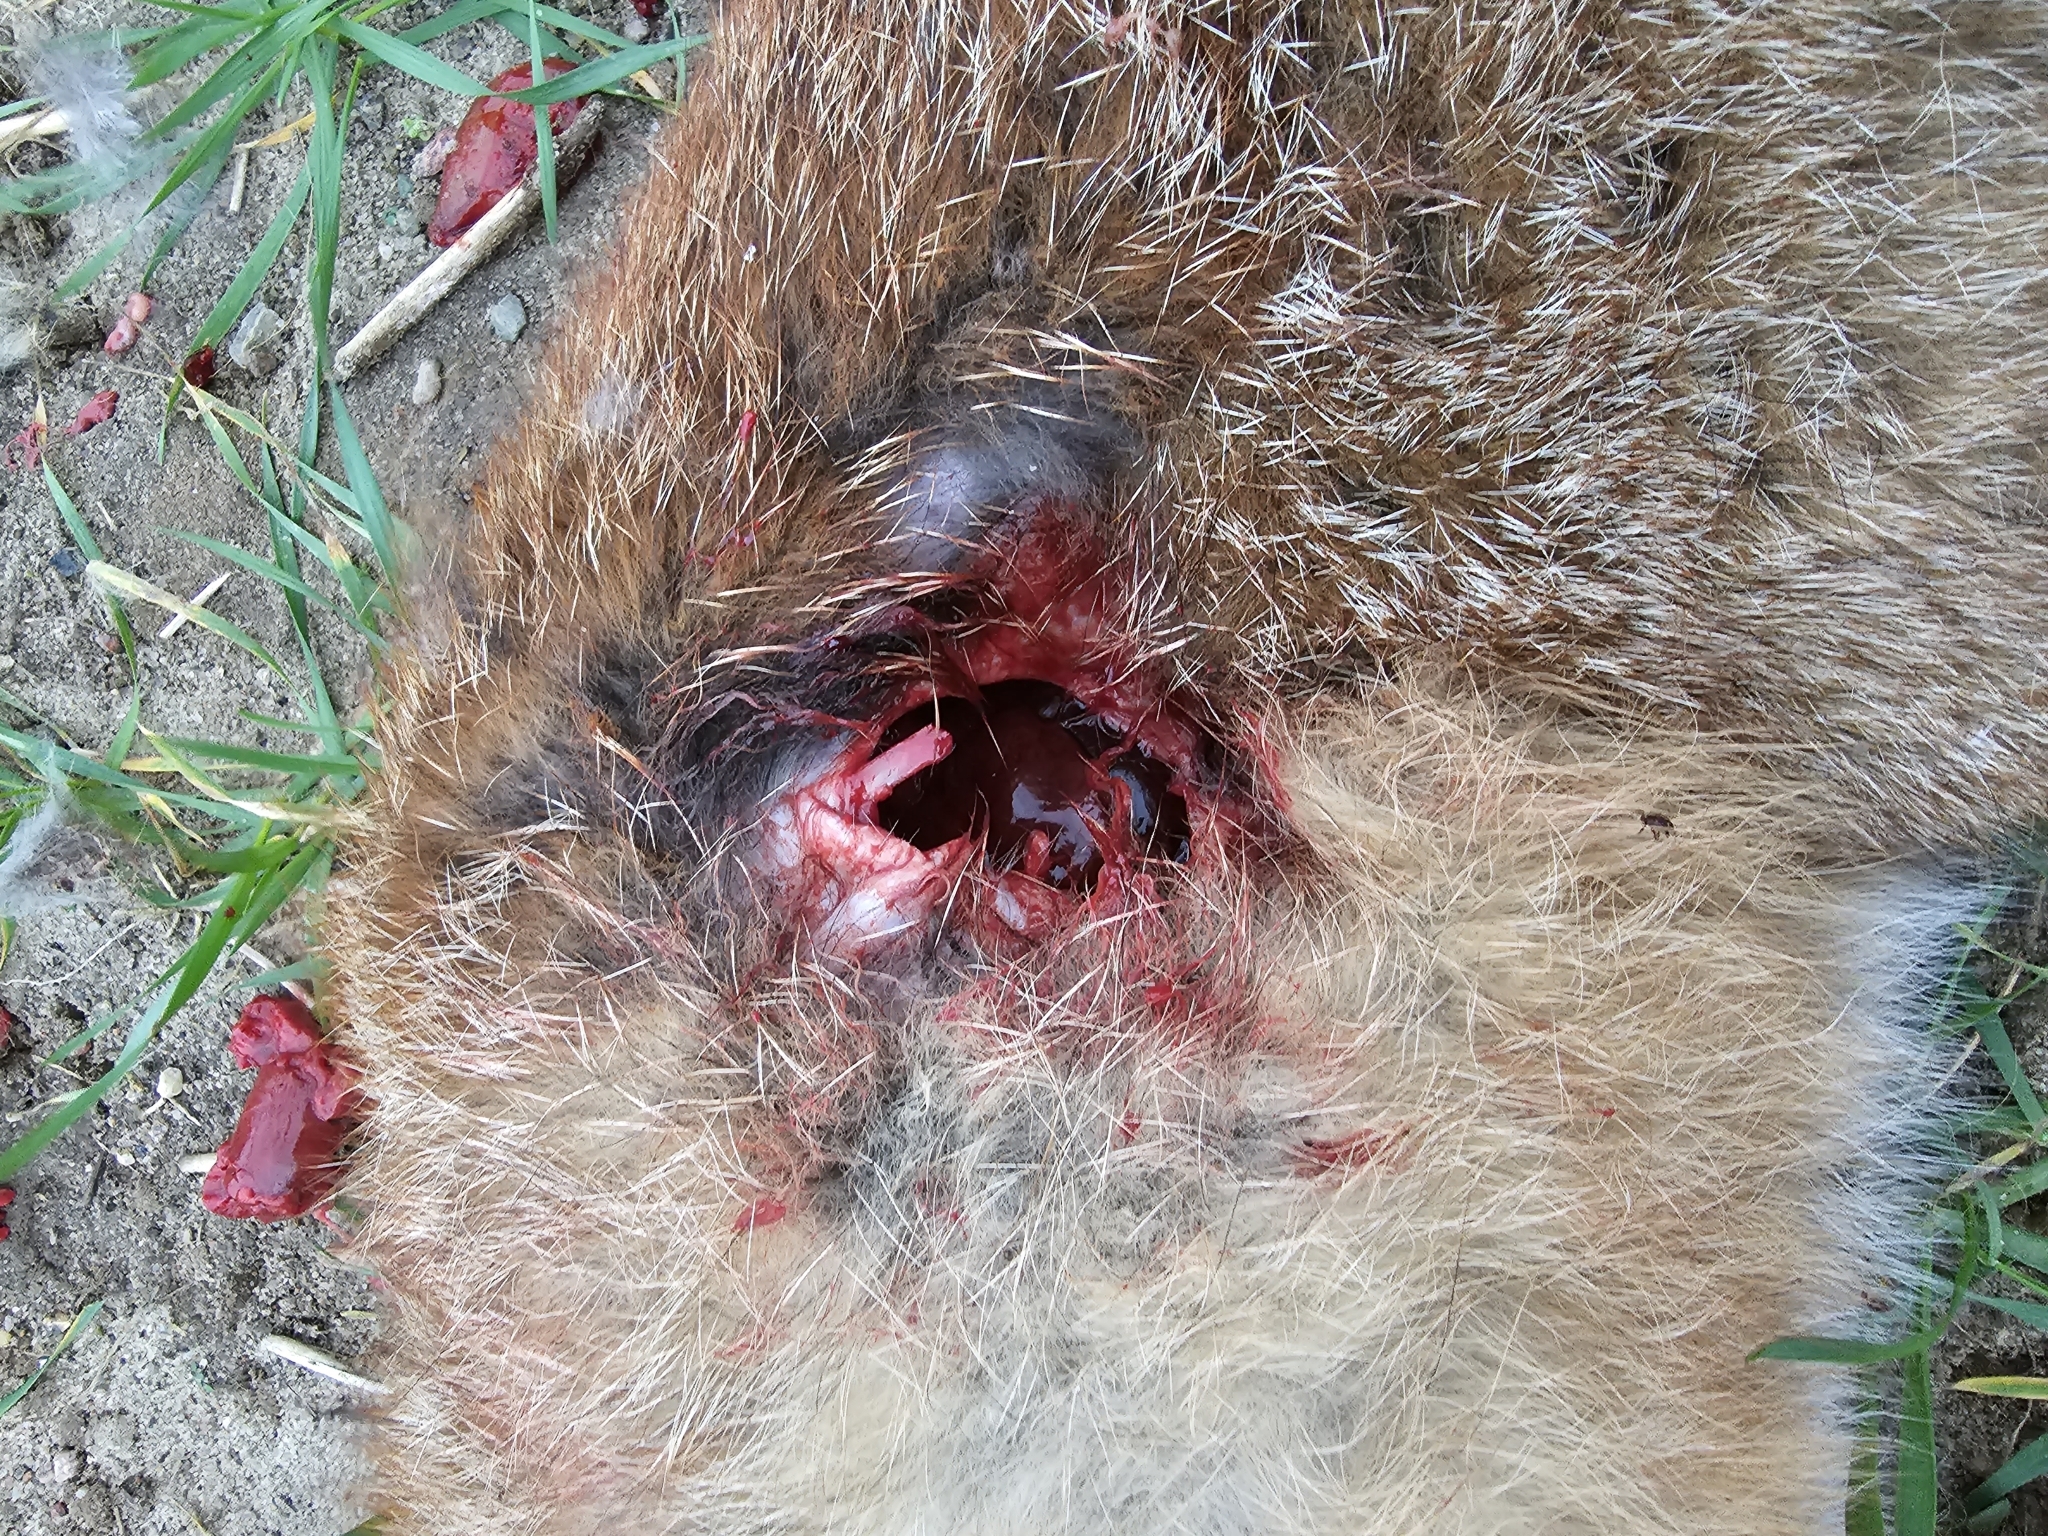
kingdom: Animalia
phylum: Chordata
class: Aves
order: Accipitriformes
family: Accipitridae
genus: Accipiter
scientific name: Accipiter gentilis
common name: Northern goshawk
